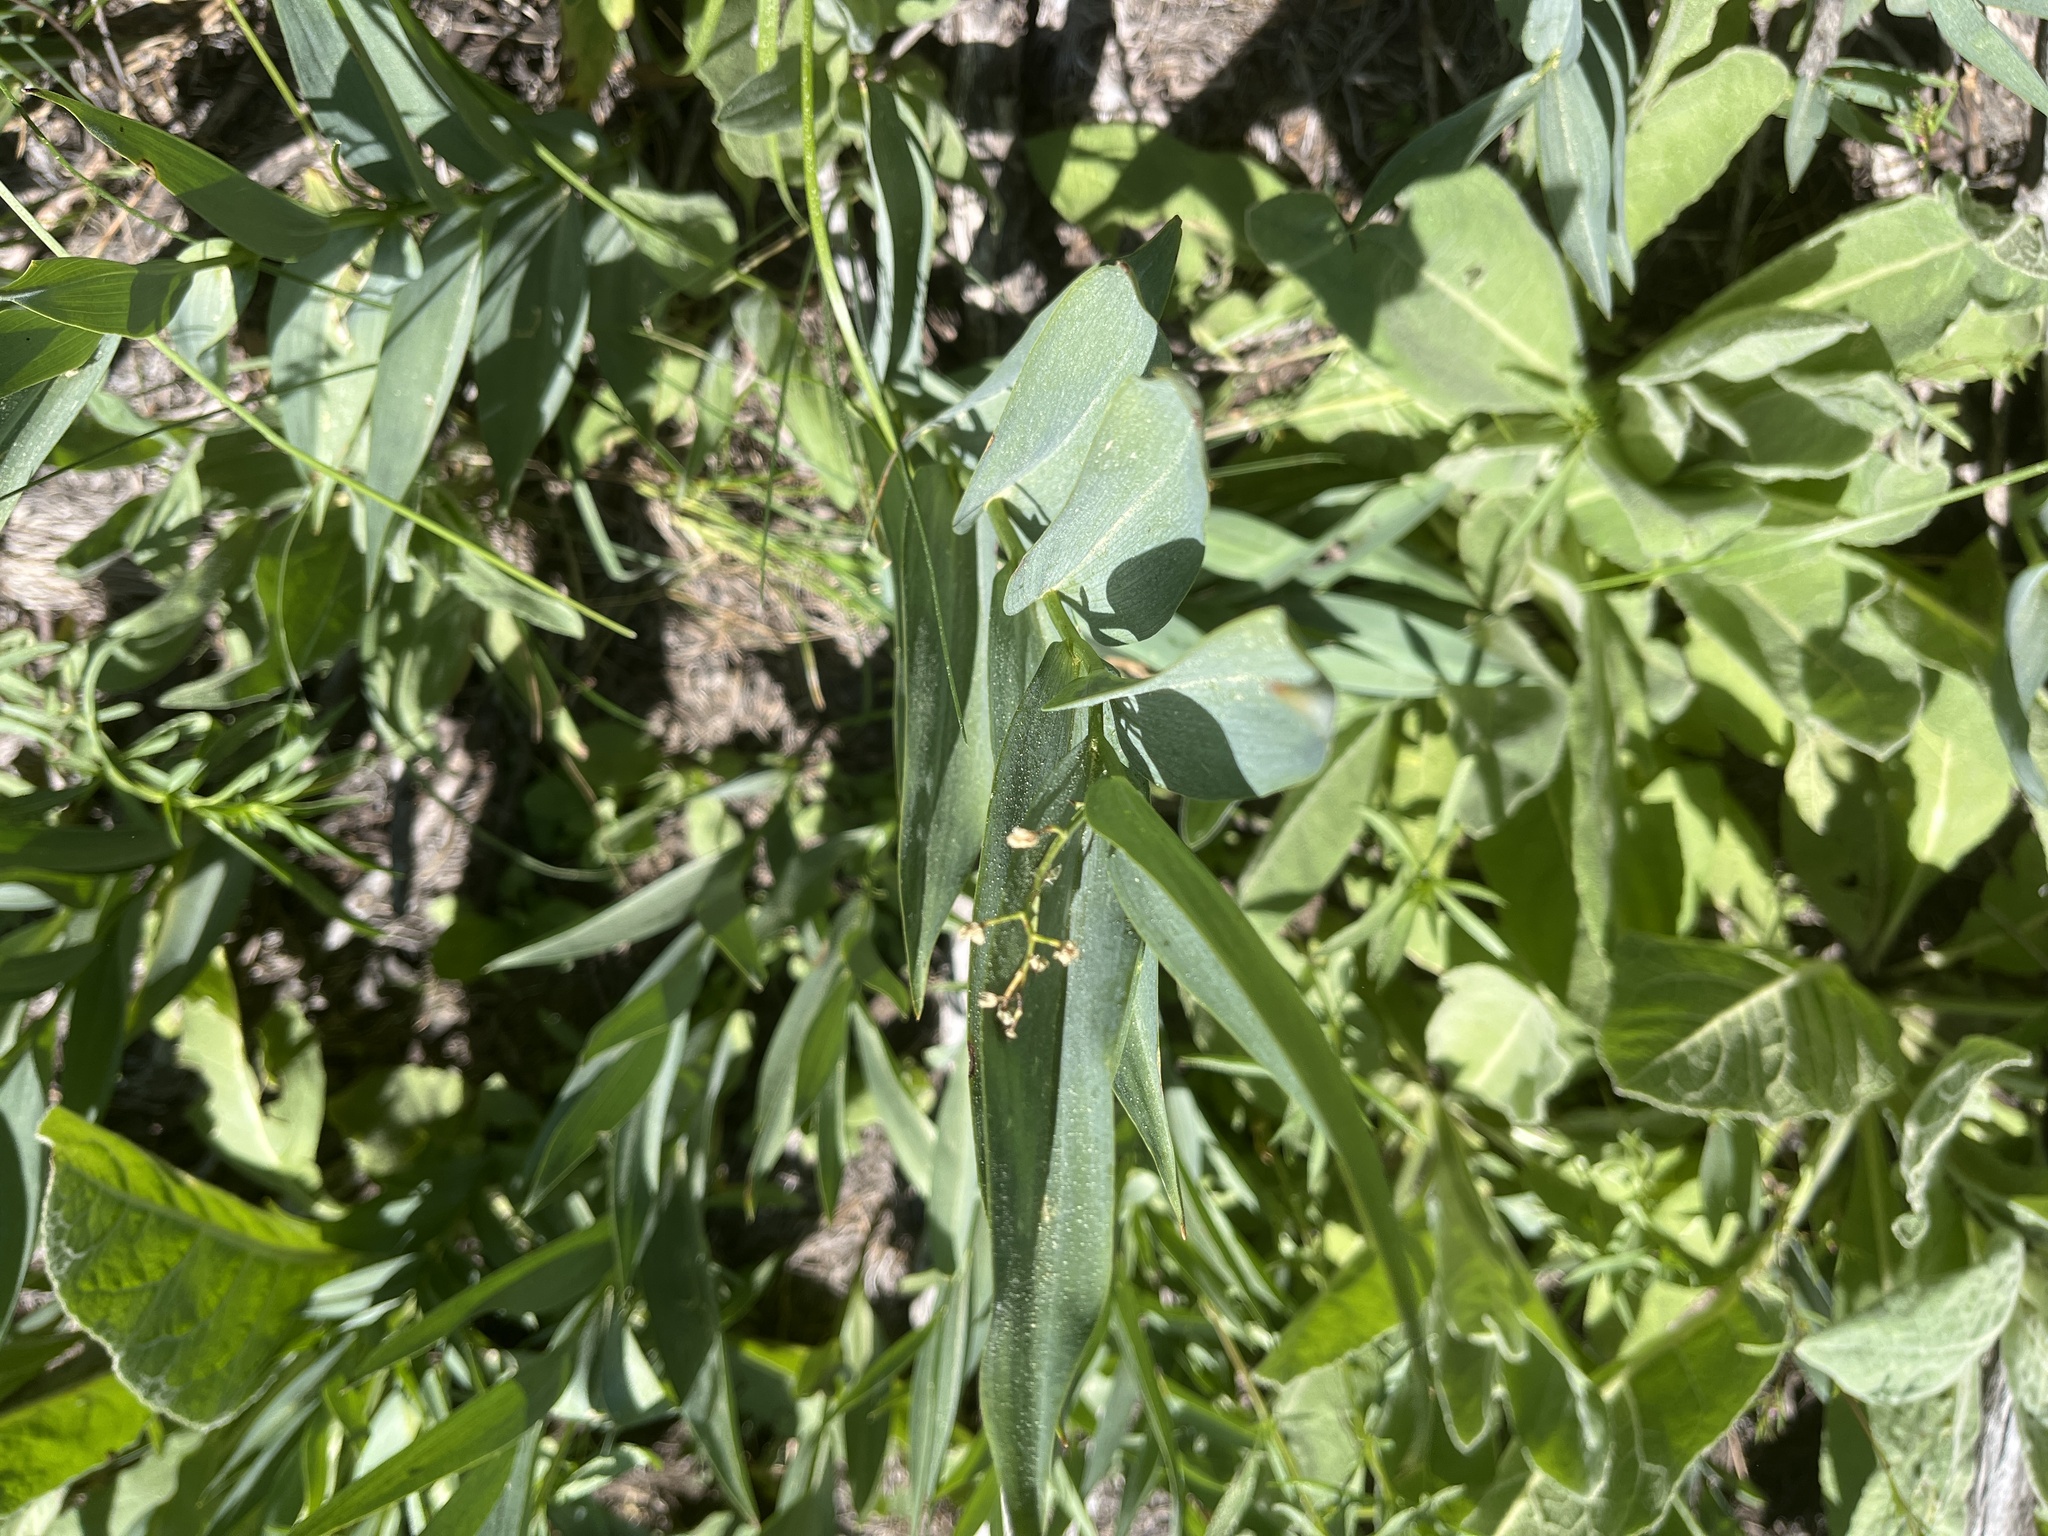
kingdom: Plantae
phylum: Tracheophyta
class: Liliopsida
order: Asparagales
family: Asparagaceae
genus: Maianthemum
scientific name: Maianthemum stellatum
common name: Little false solomon's seal
